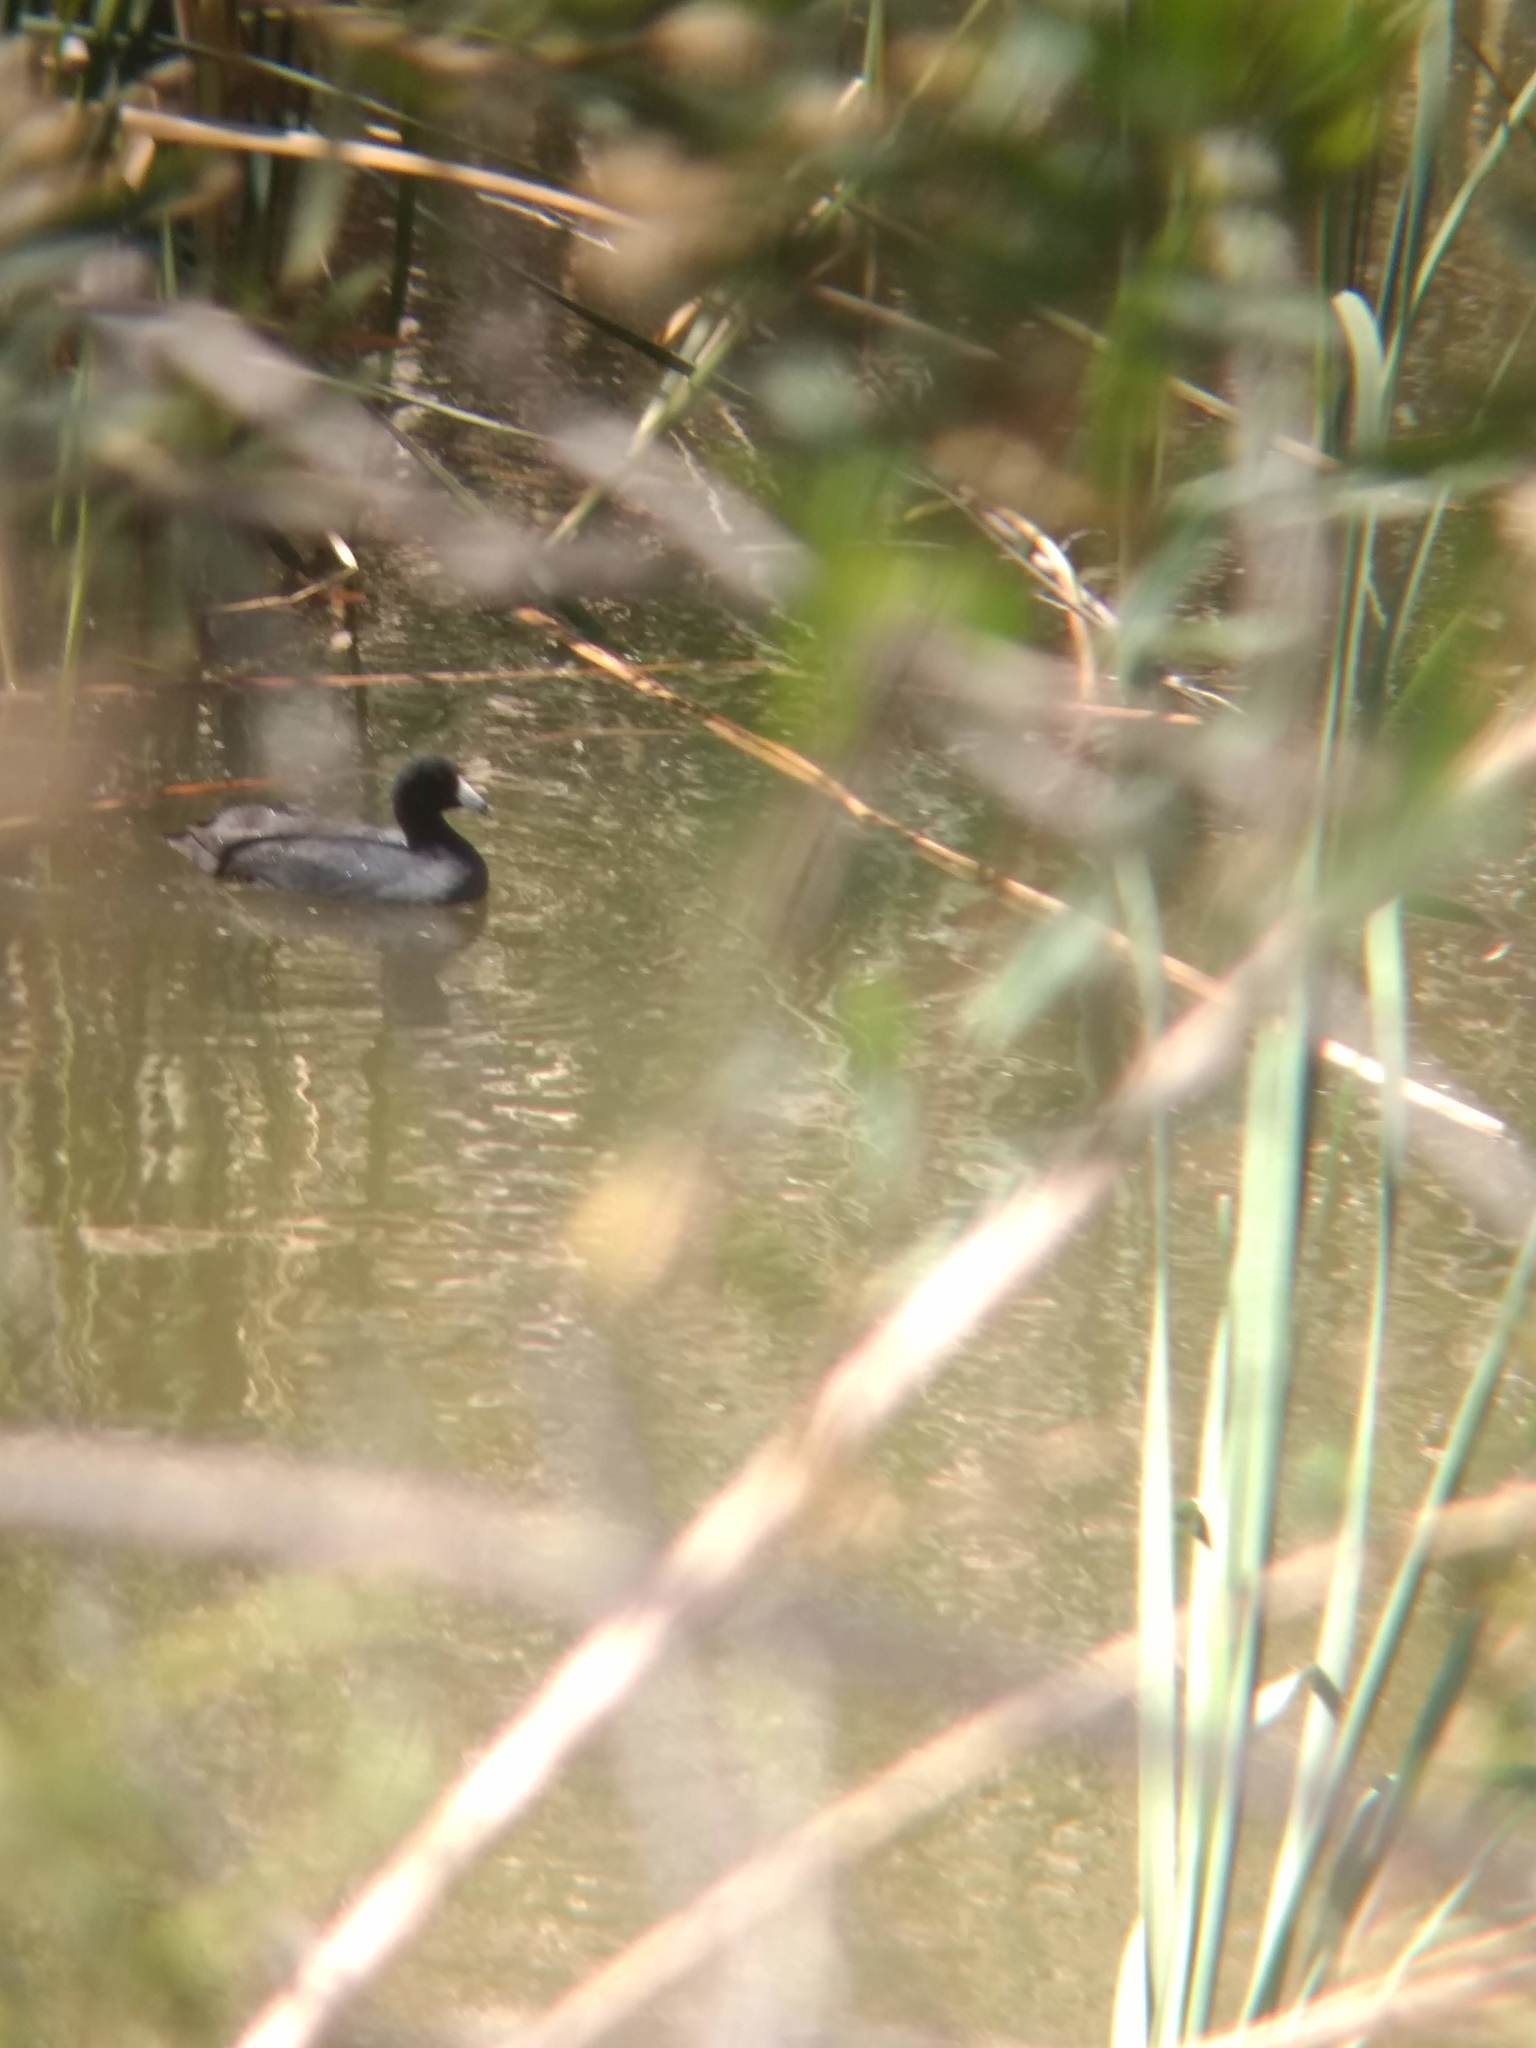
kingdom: Animalia
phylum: Chordata
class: Aves
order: Gruiformes
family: Rallidae
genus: Fulica
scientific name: Fulica americana
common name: American coot
